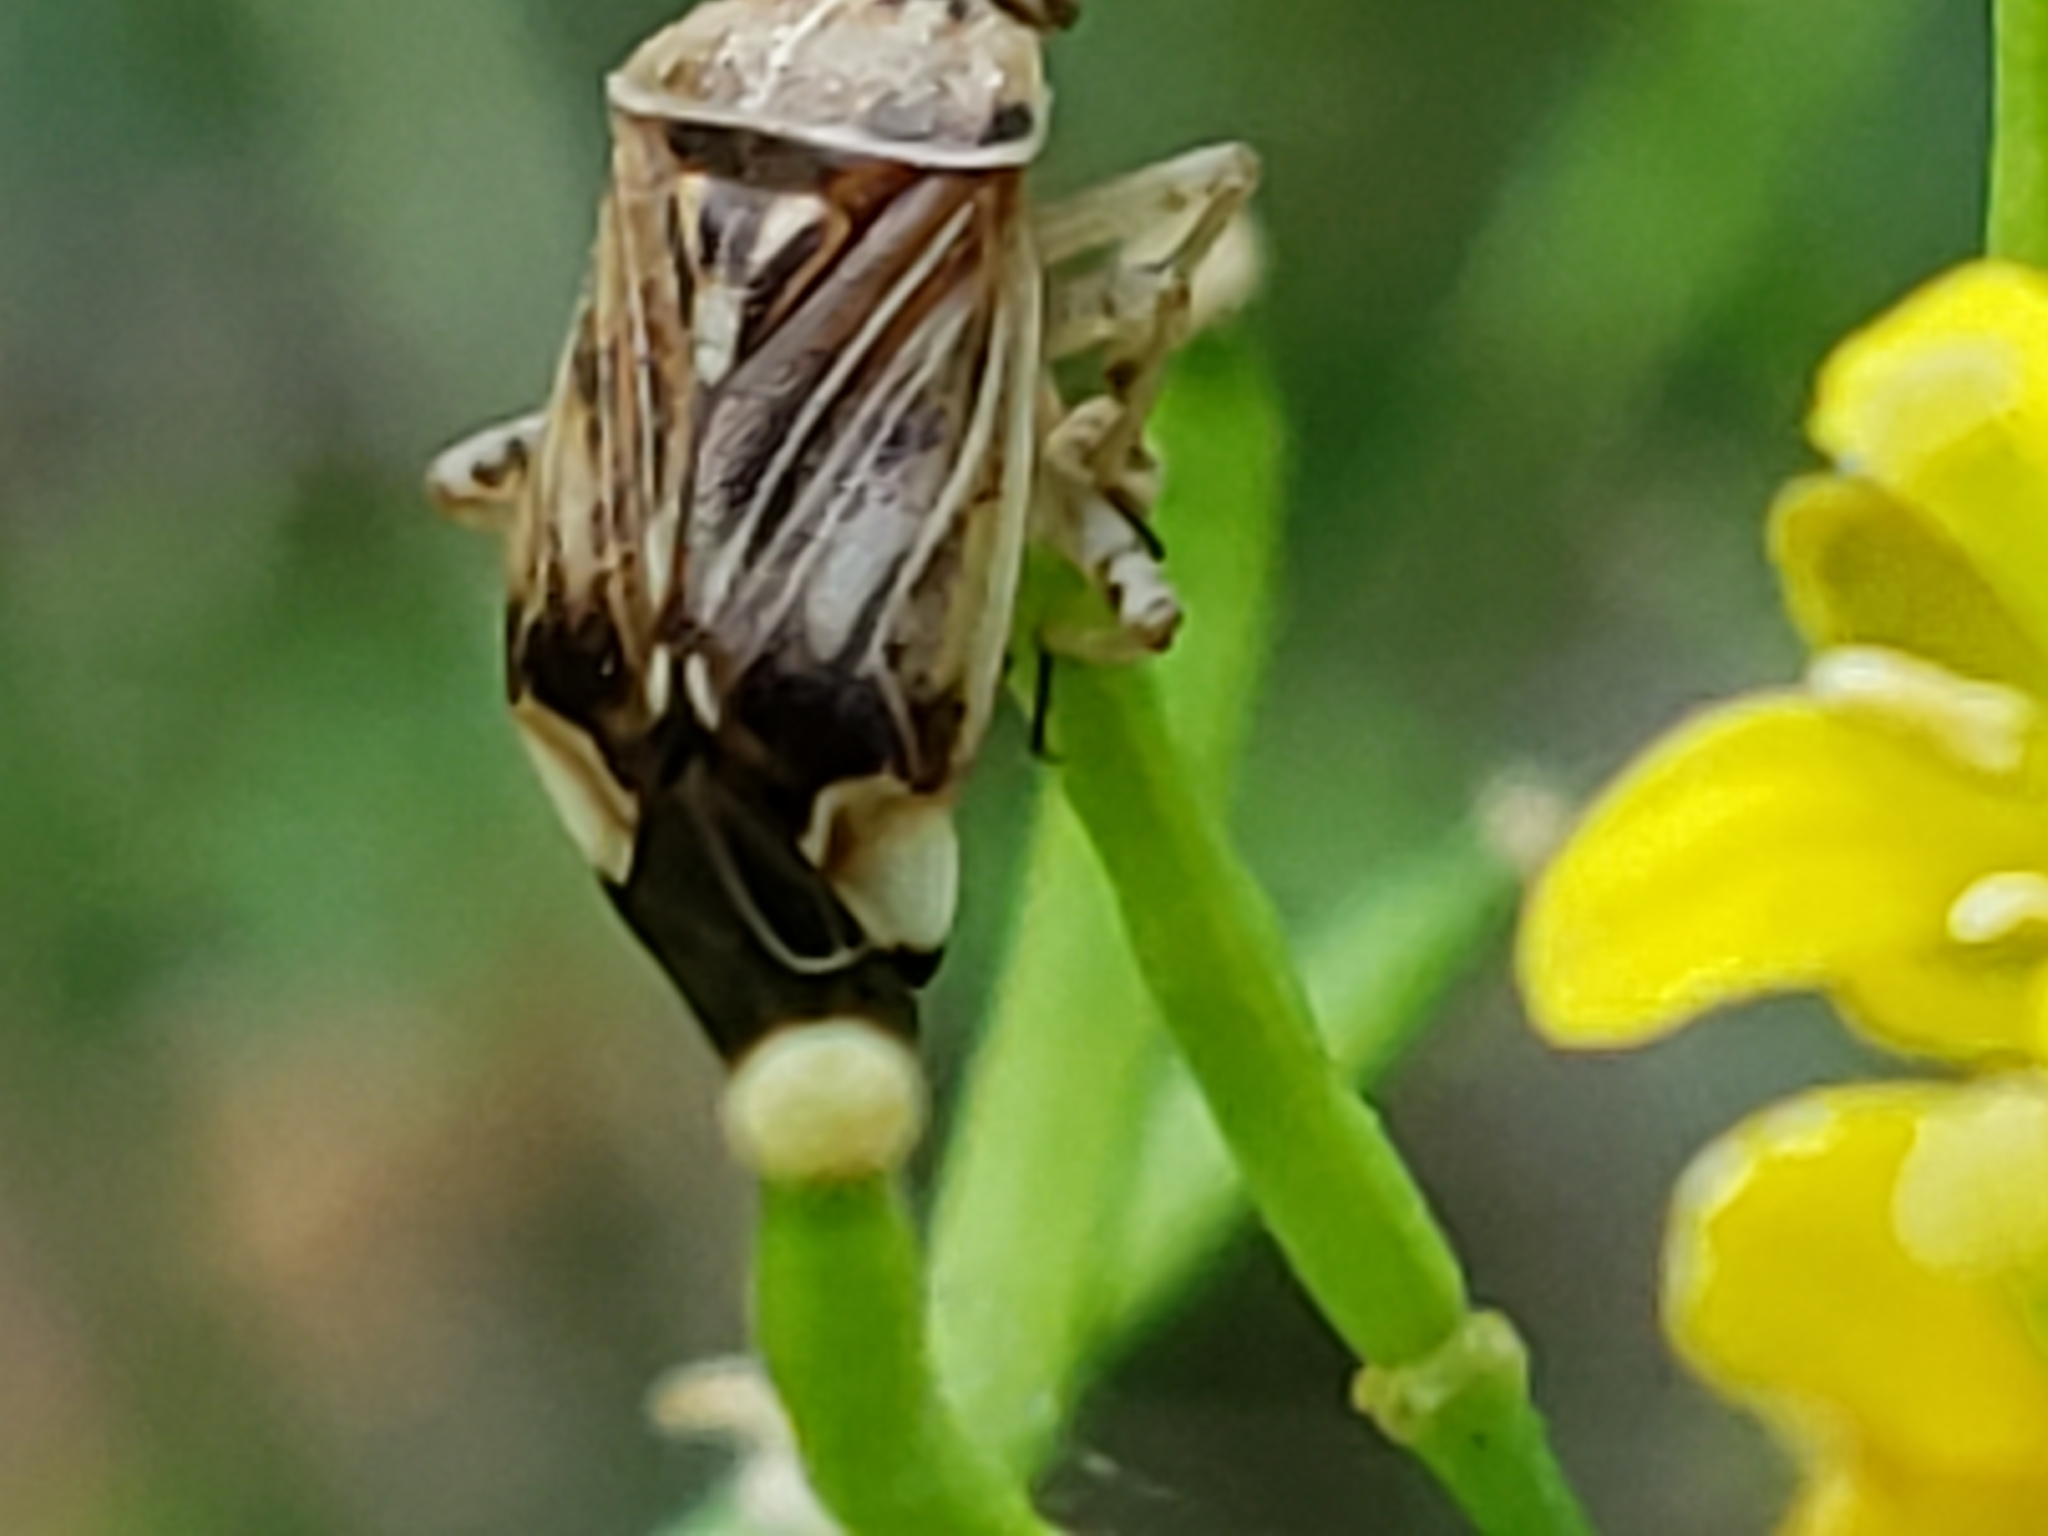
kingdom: Animalia
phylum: Arthropoda
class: Insecta
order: Hemiptera
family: Miridae
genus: Lygus
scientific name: Lygus lineolaris
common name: North american tarnished plant bug
